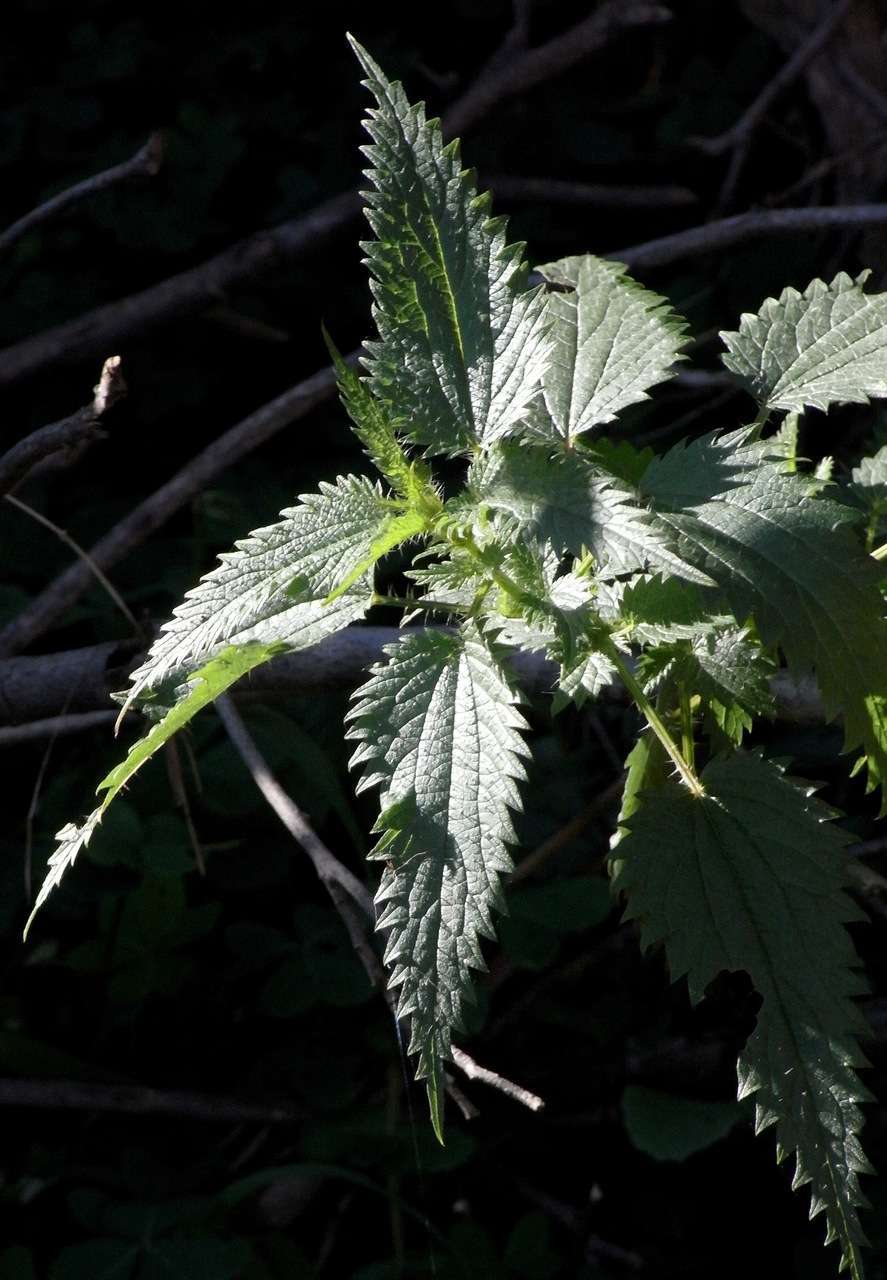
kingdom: Plantae
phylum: Tracheophyta
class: Magnoliopsida
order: Rosales
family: Urticaceae
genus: Urtica
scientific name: Urtica incisa
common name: Scrub nettle
